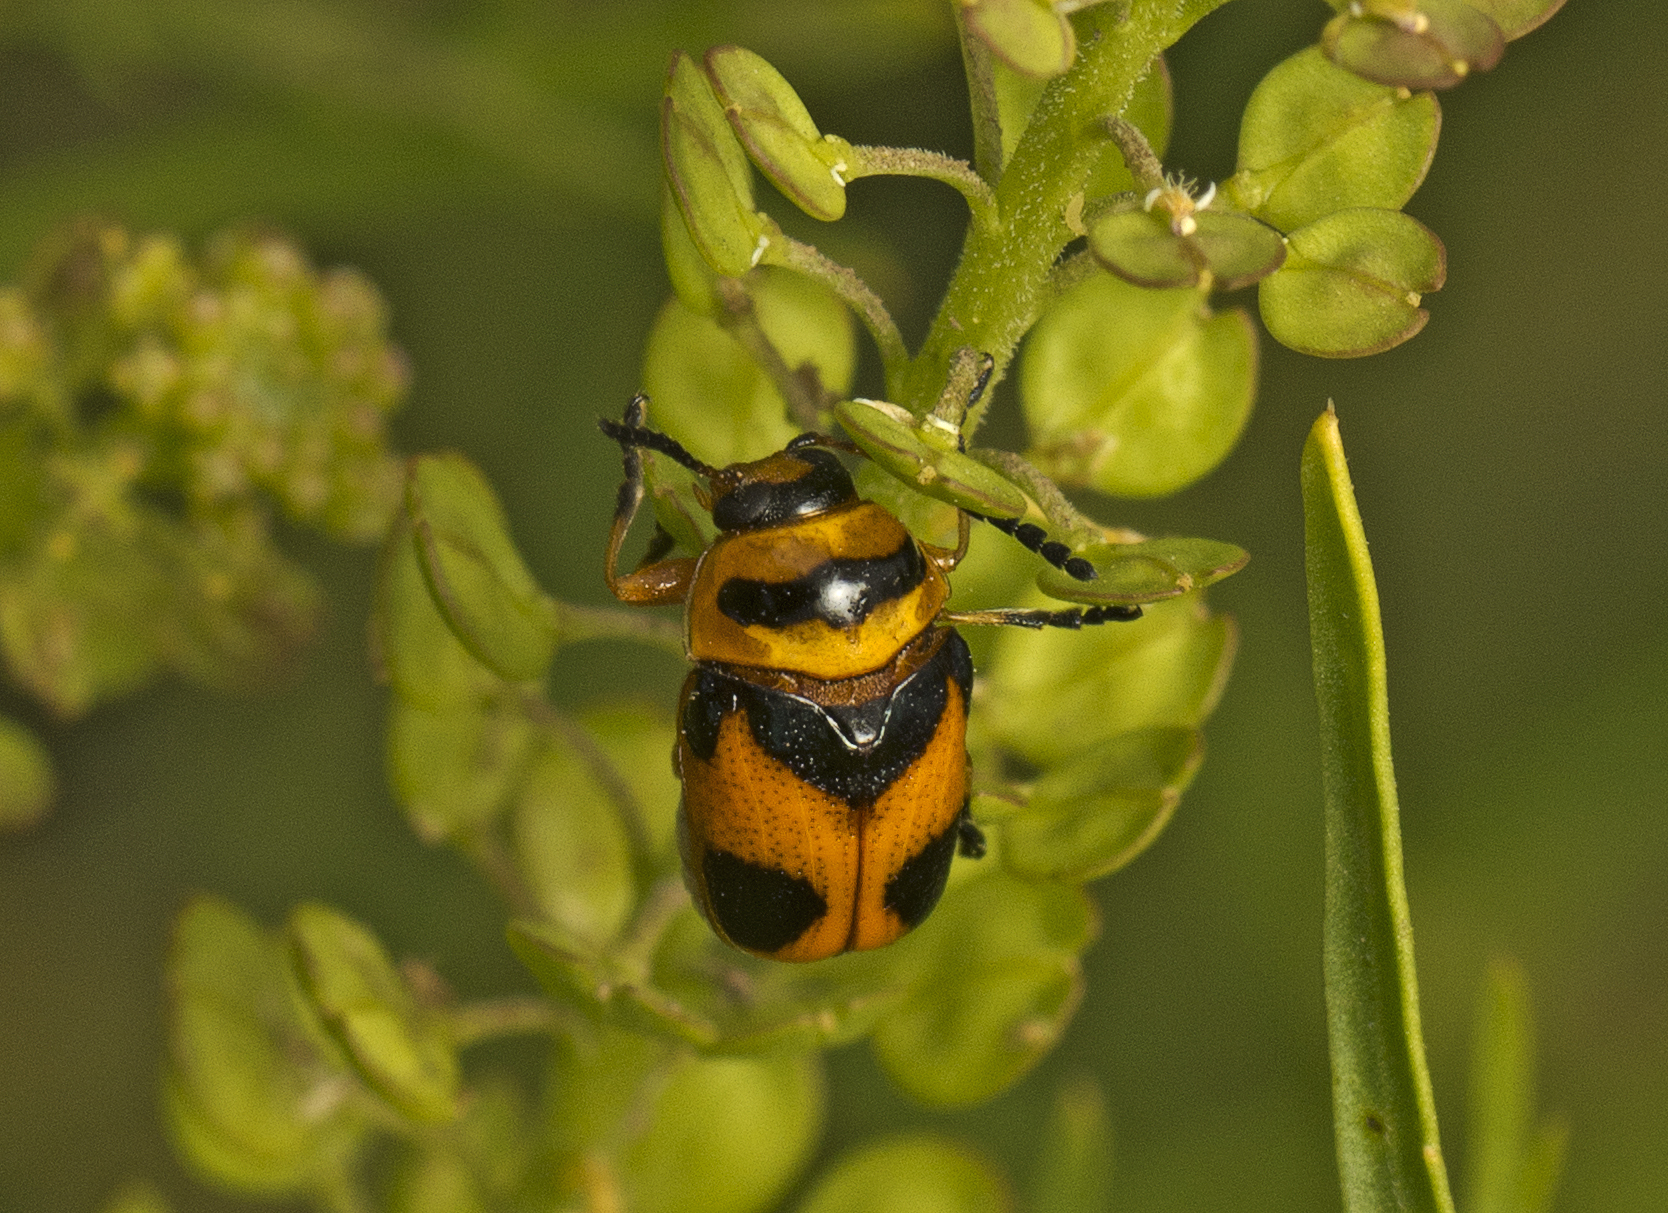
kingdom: Animalia
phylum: Arthropoda
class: Insecta
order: Coleoptera
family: Chrysomelidae
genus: Aporocera
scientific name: Aporocera
